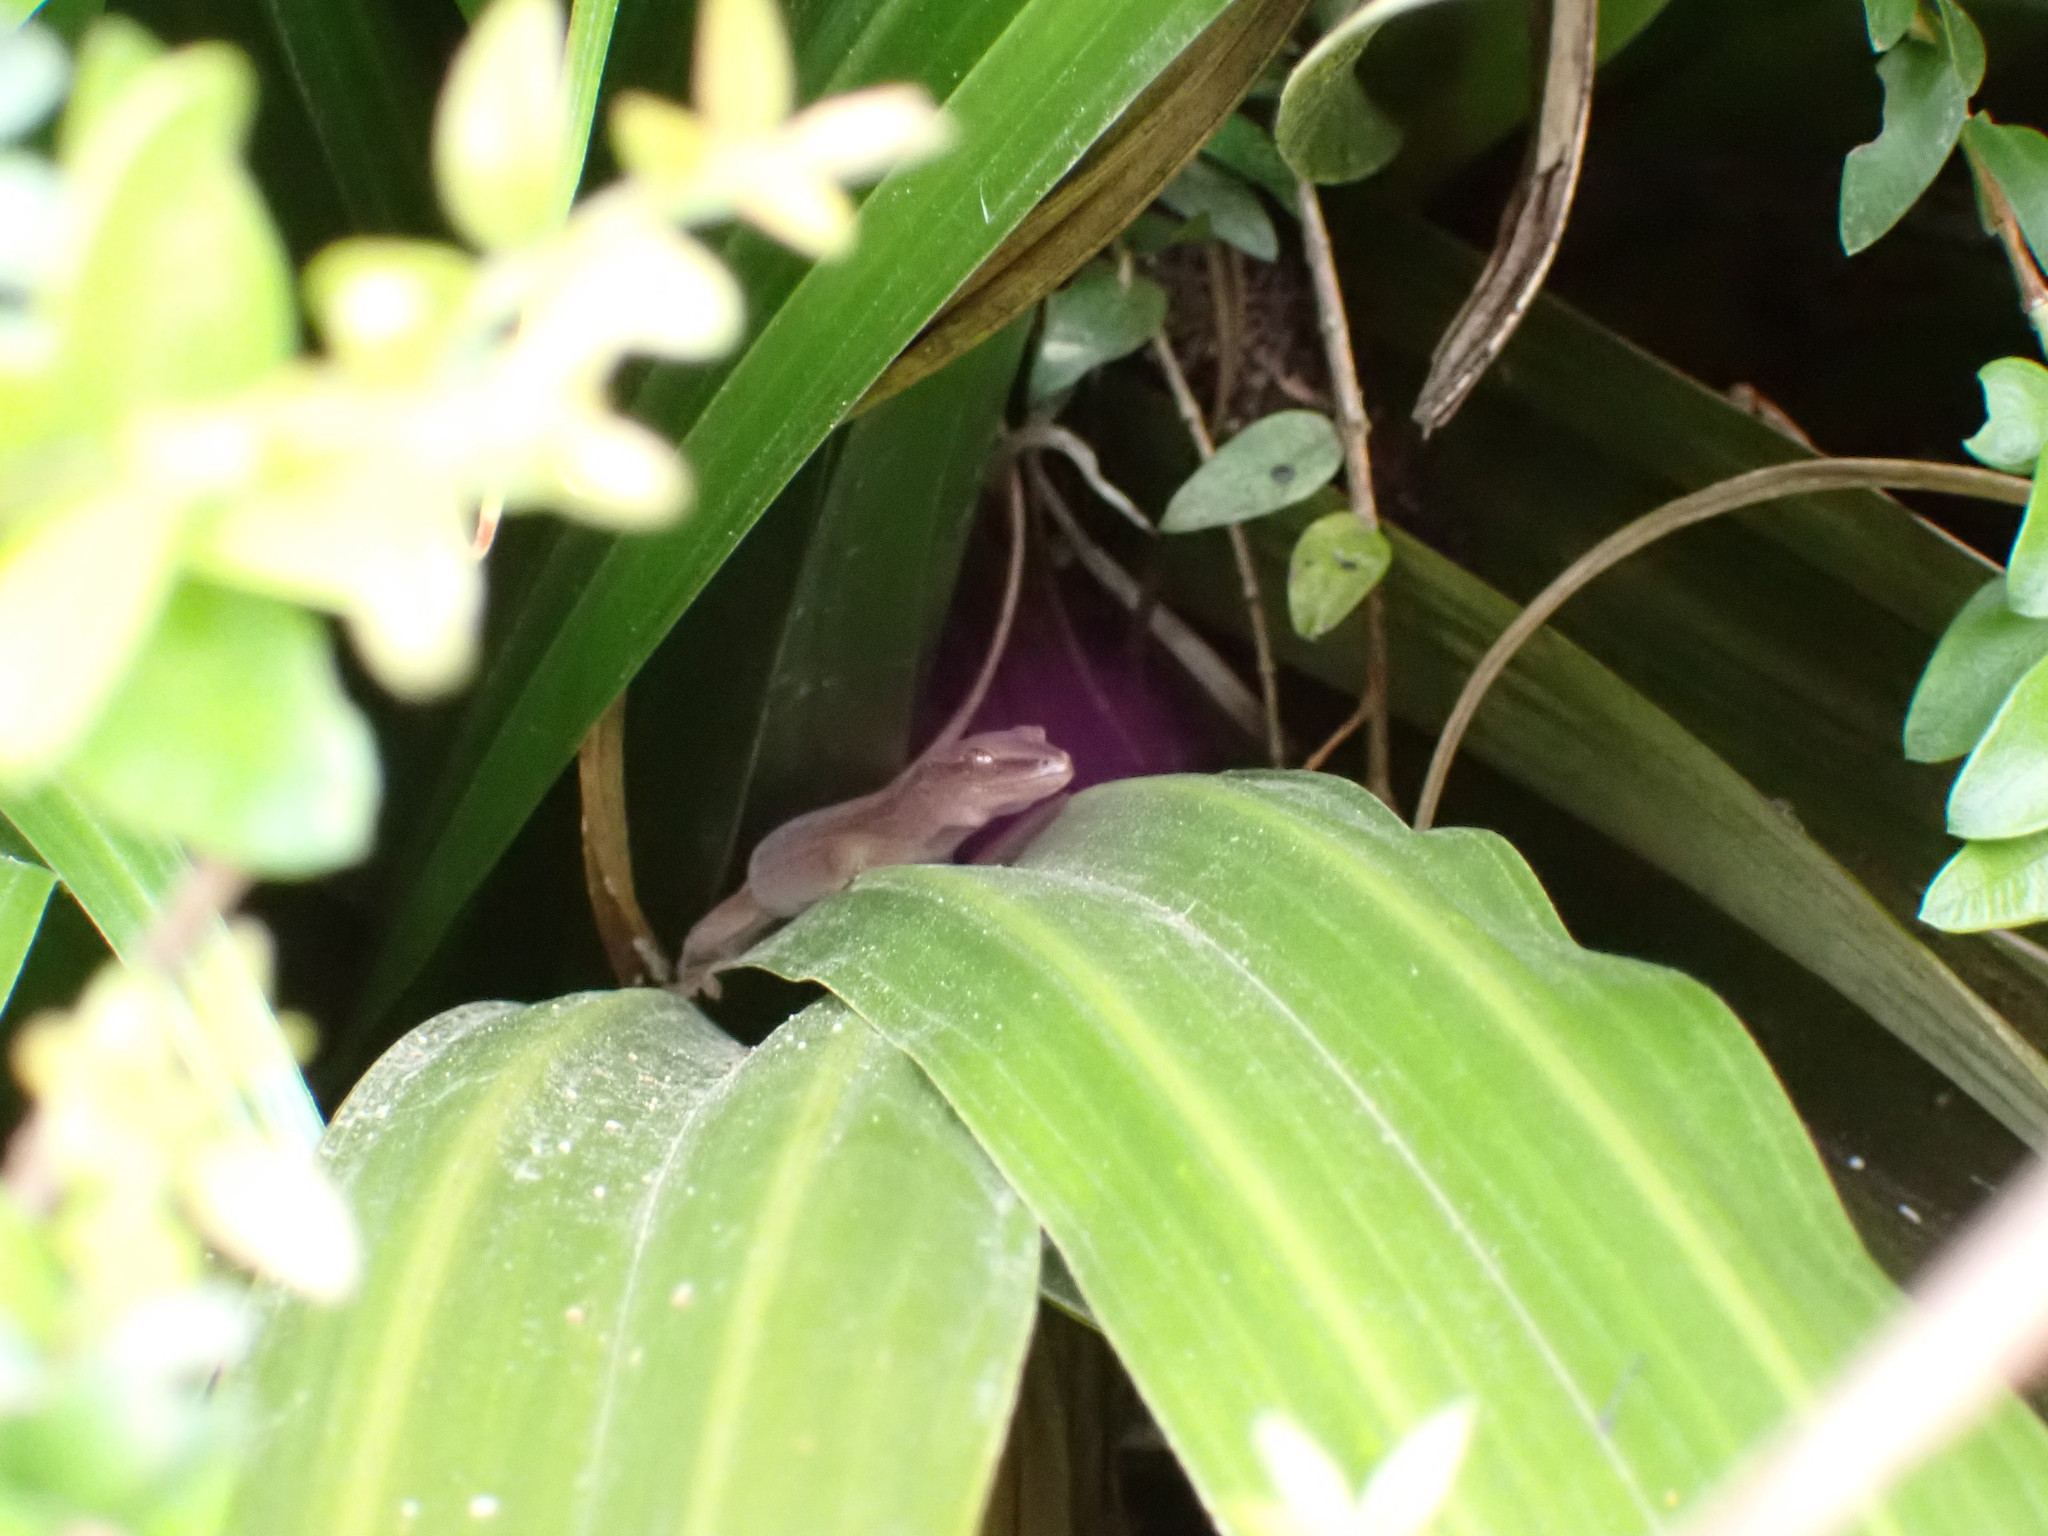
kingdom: Animalia
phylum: Chordata
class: Squamata
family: Diplodactylidae
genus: Woodworthia
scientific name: Woodworthia chrysosiretica
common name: Gold-striped gecko
